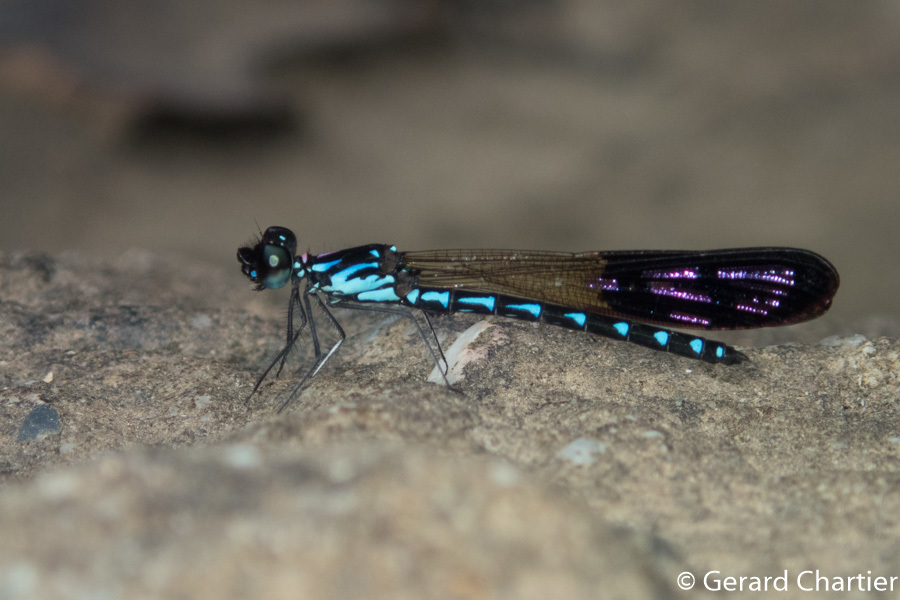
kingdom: Animalia
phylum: Arthropoda
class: Insecta
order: Odonata
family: Chlorocyphidae
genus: Heliocypha
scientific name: Heliocypha perforata
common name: Common blue jewel
